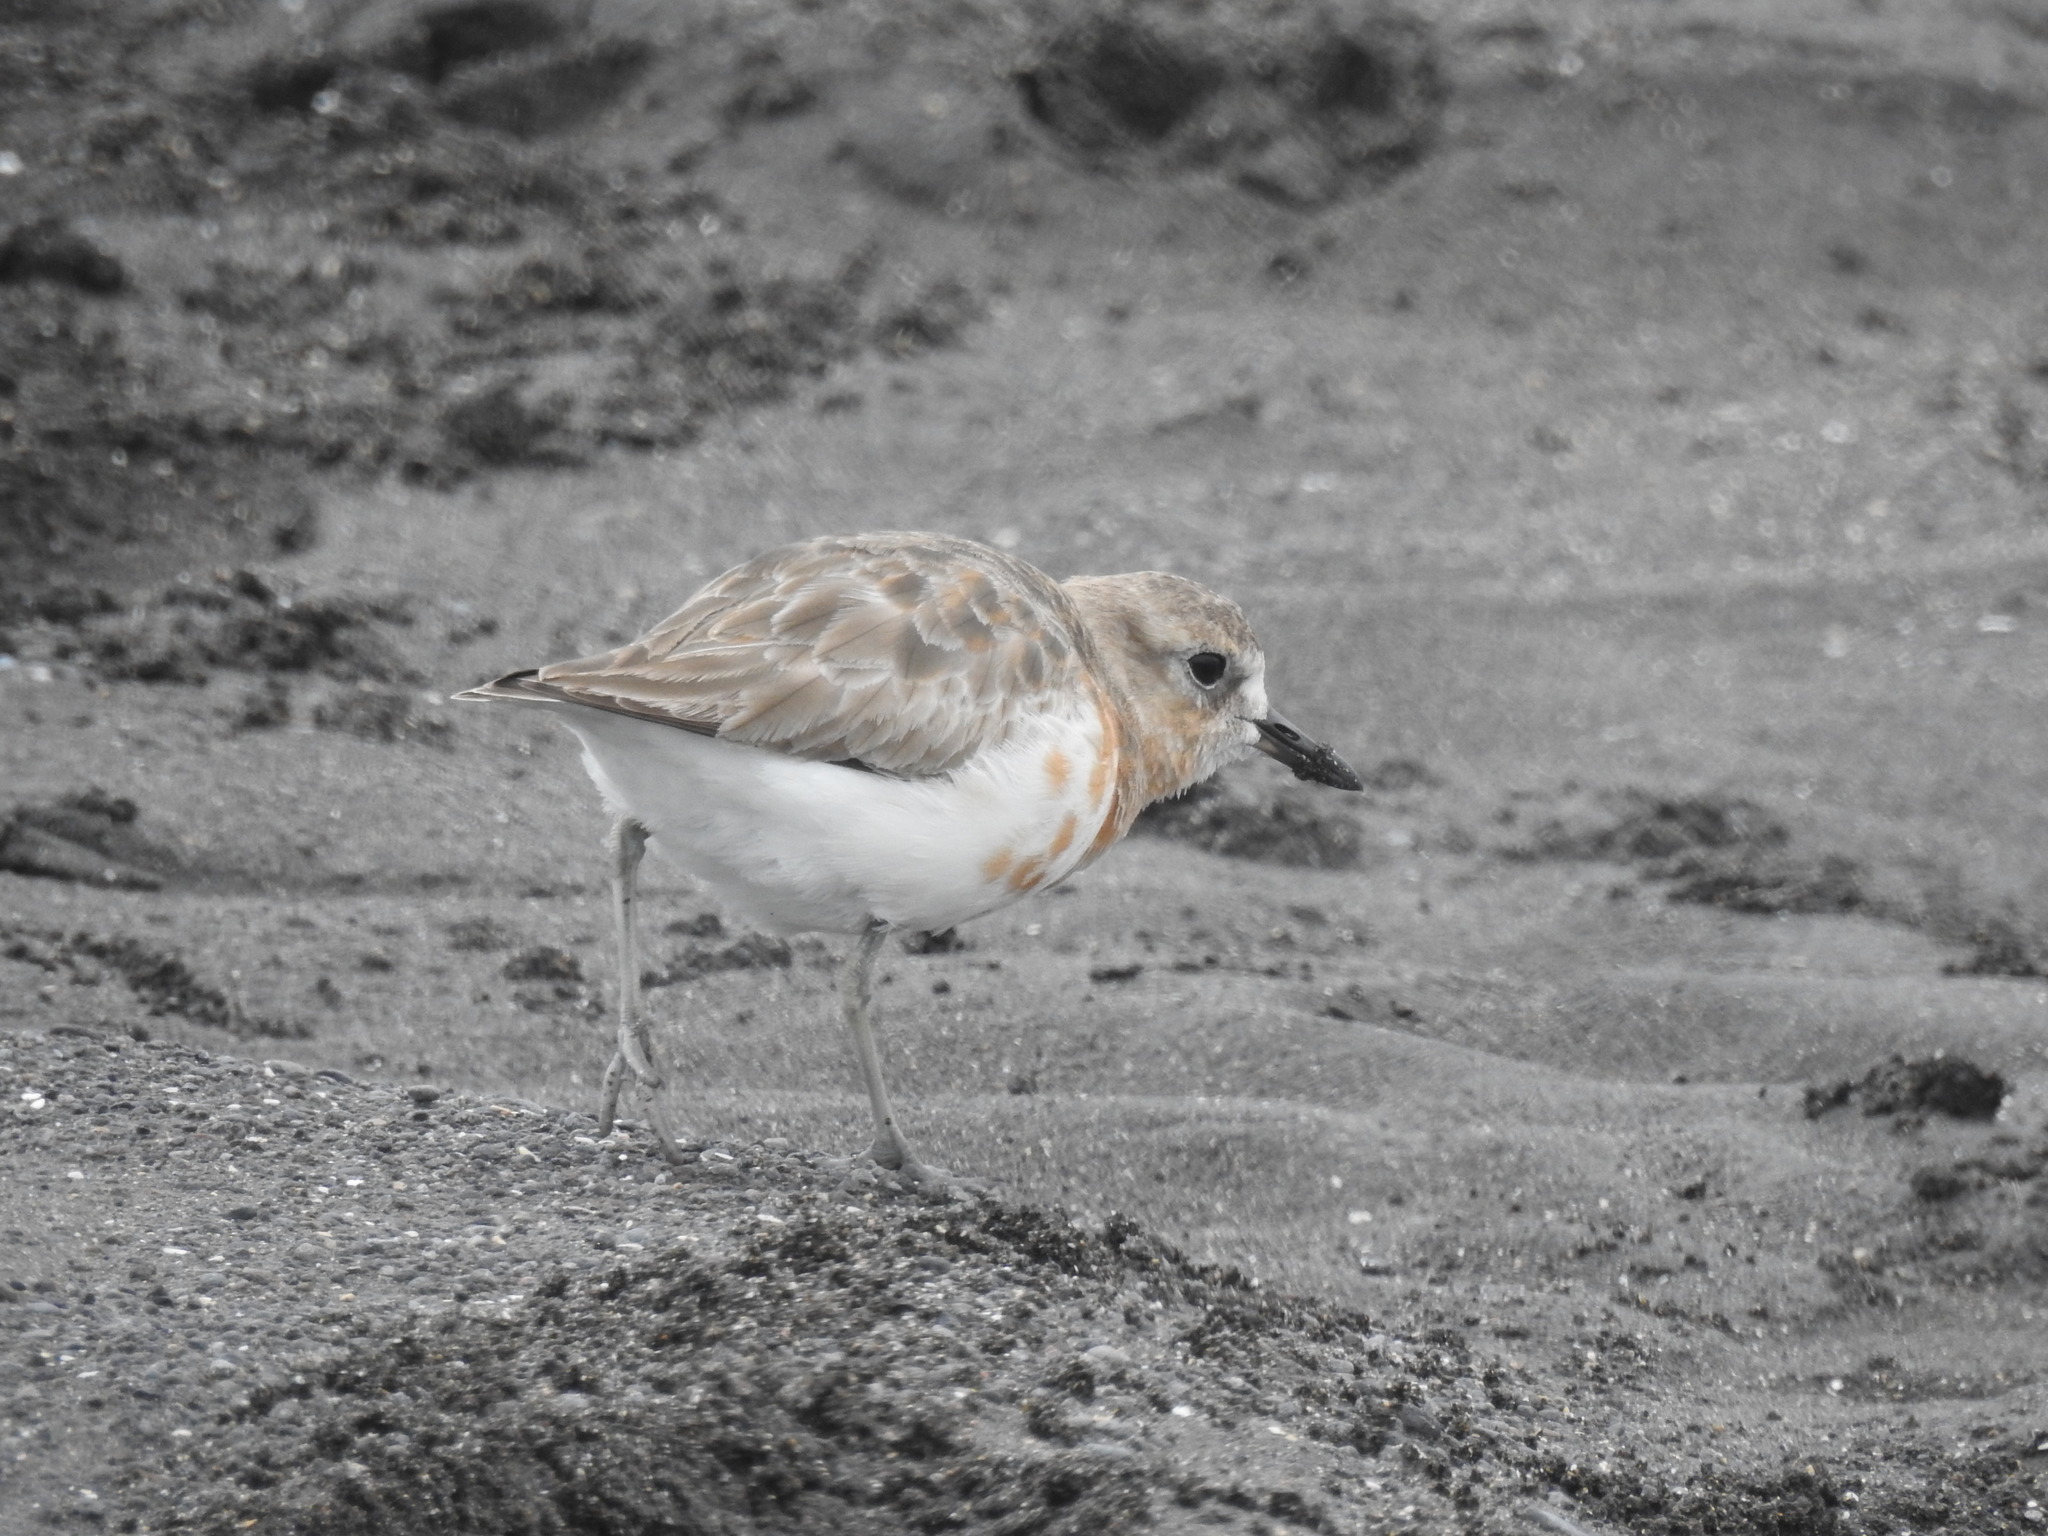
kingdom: Animalia
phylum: Chordata
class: Aves
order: Charadriiformes
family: Charadriidae
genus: Anarhynchus
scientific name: Anarhynchus
